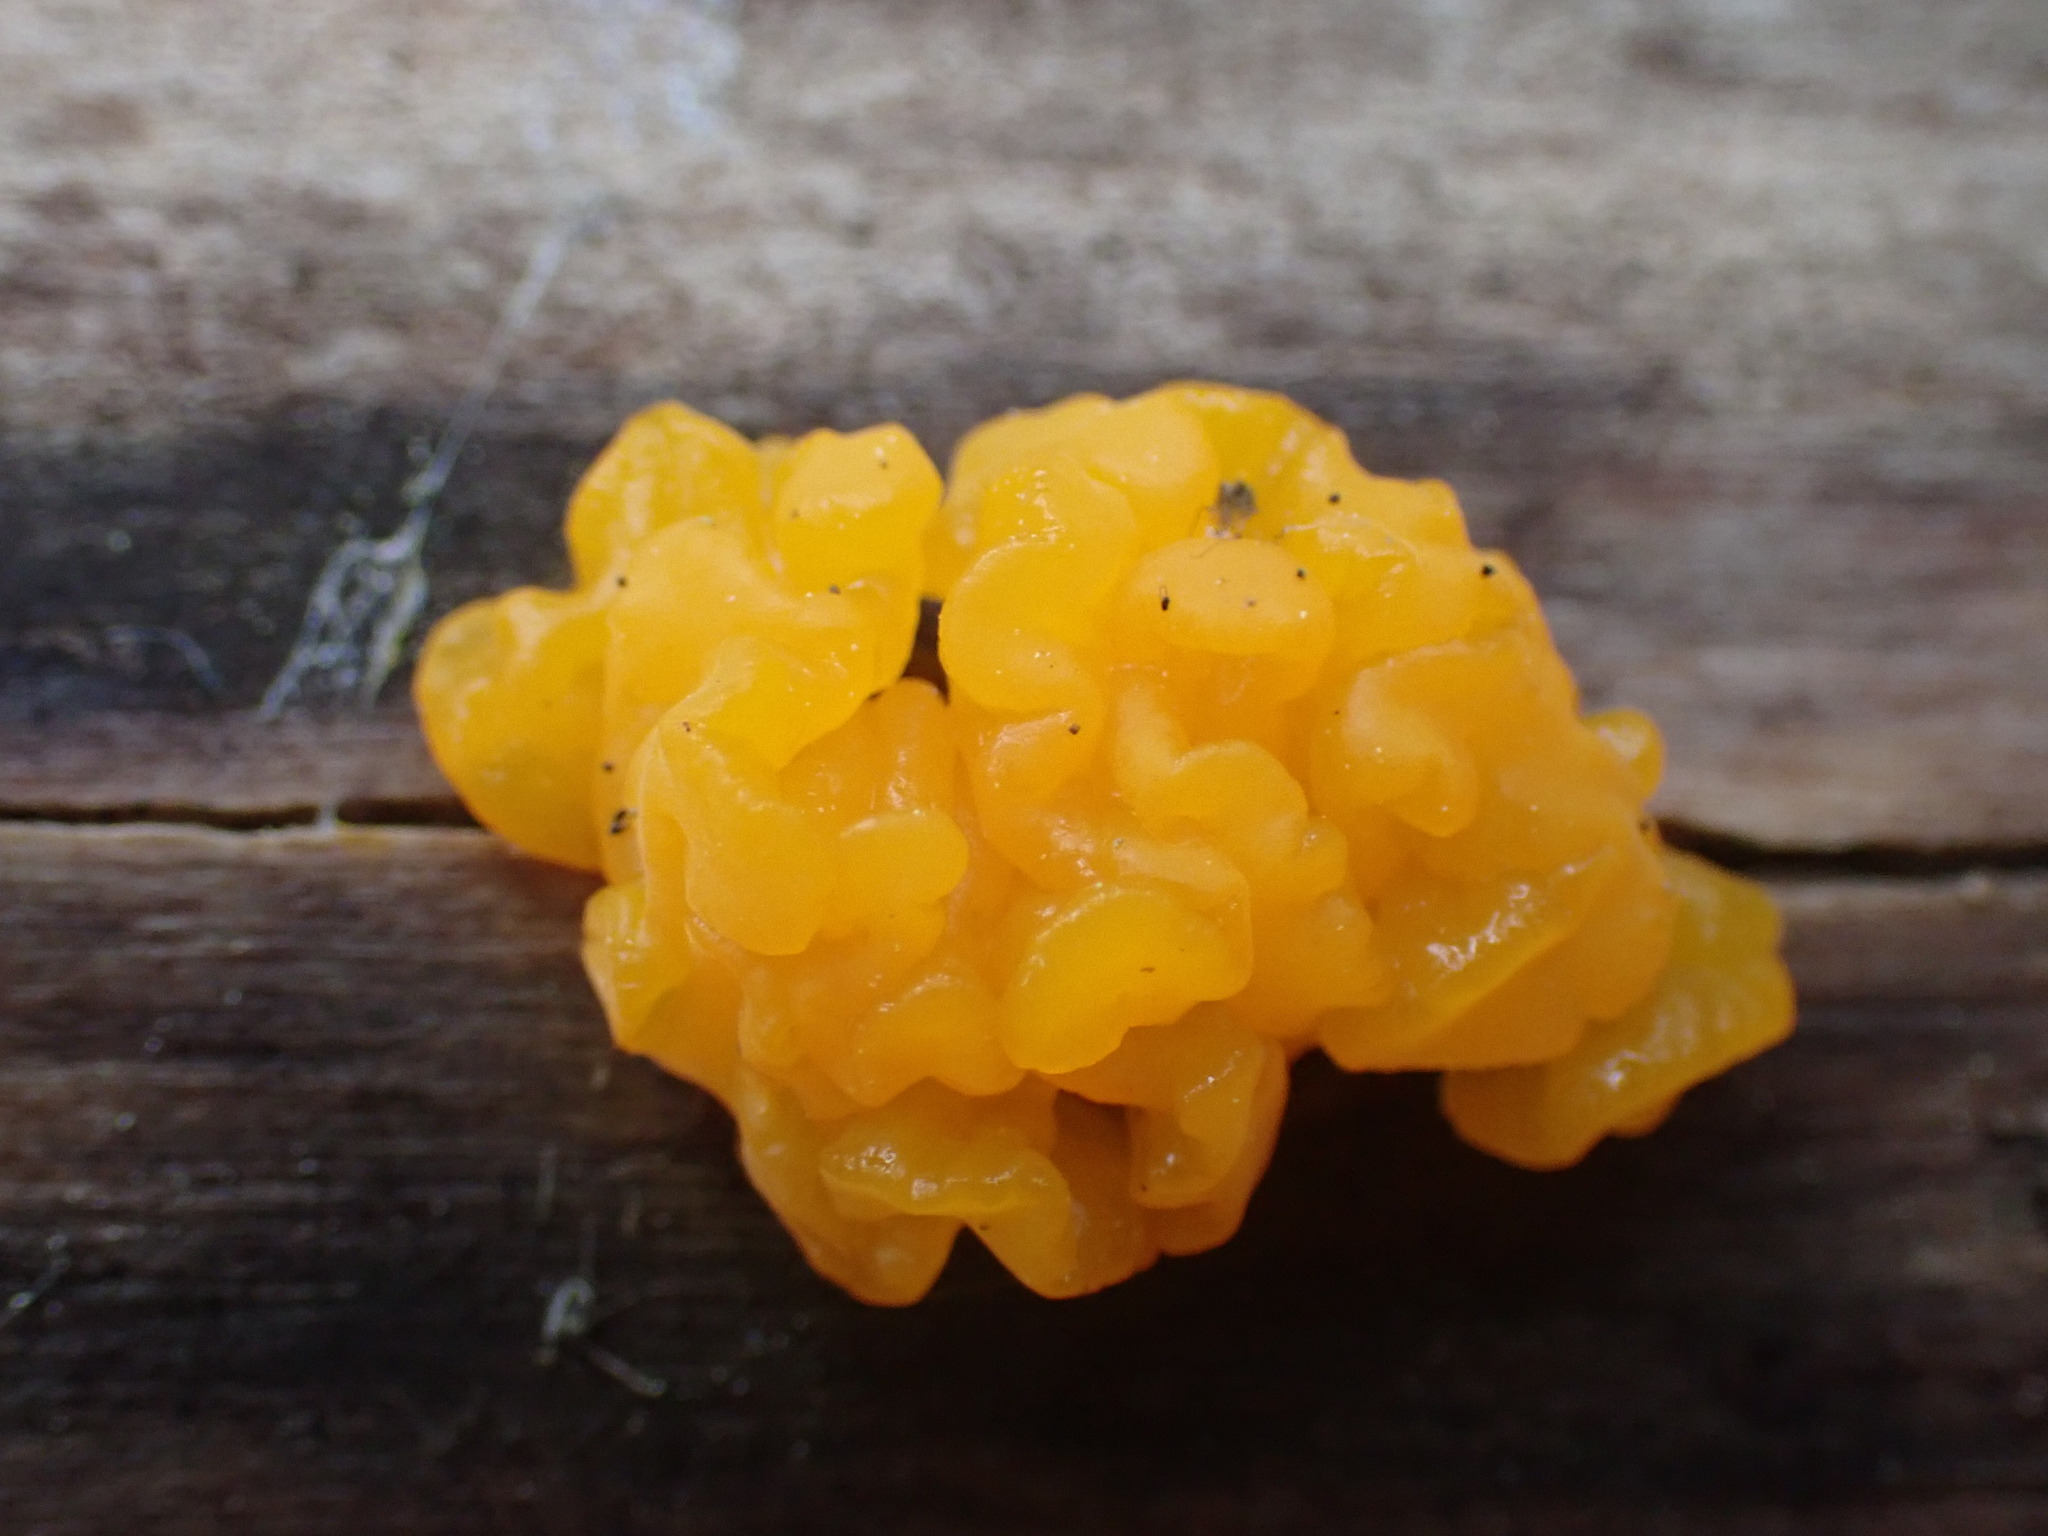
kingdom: Fungi
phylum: Basidiomycota
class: Dacrymycetes
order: Dacrymycetales
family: Dacrymycetaceae
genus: Dacrymyces
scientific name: Dacrymyces chrysospermus
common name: Orange jelly spot
